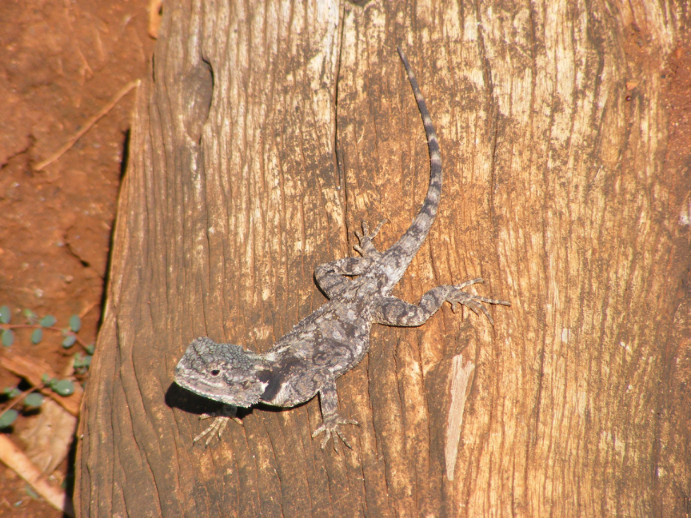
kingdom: Animalia
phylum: Chordata
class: Squamata
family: Agamidae
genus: Acanthocercus
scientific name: Acanthocercus atricollis
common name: Southern tree agama
